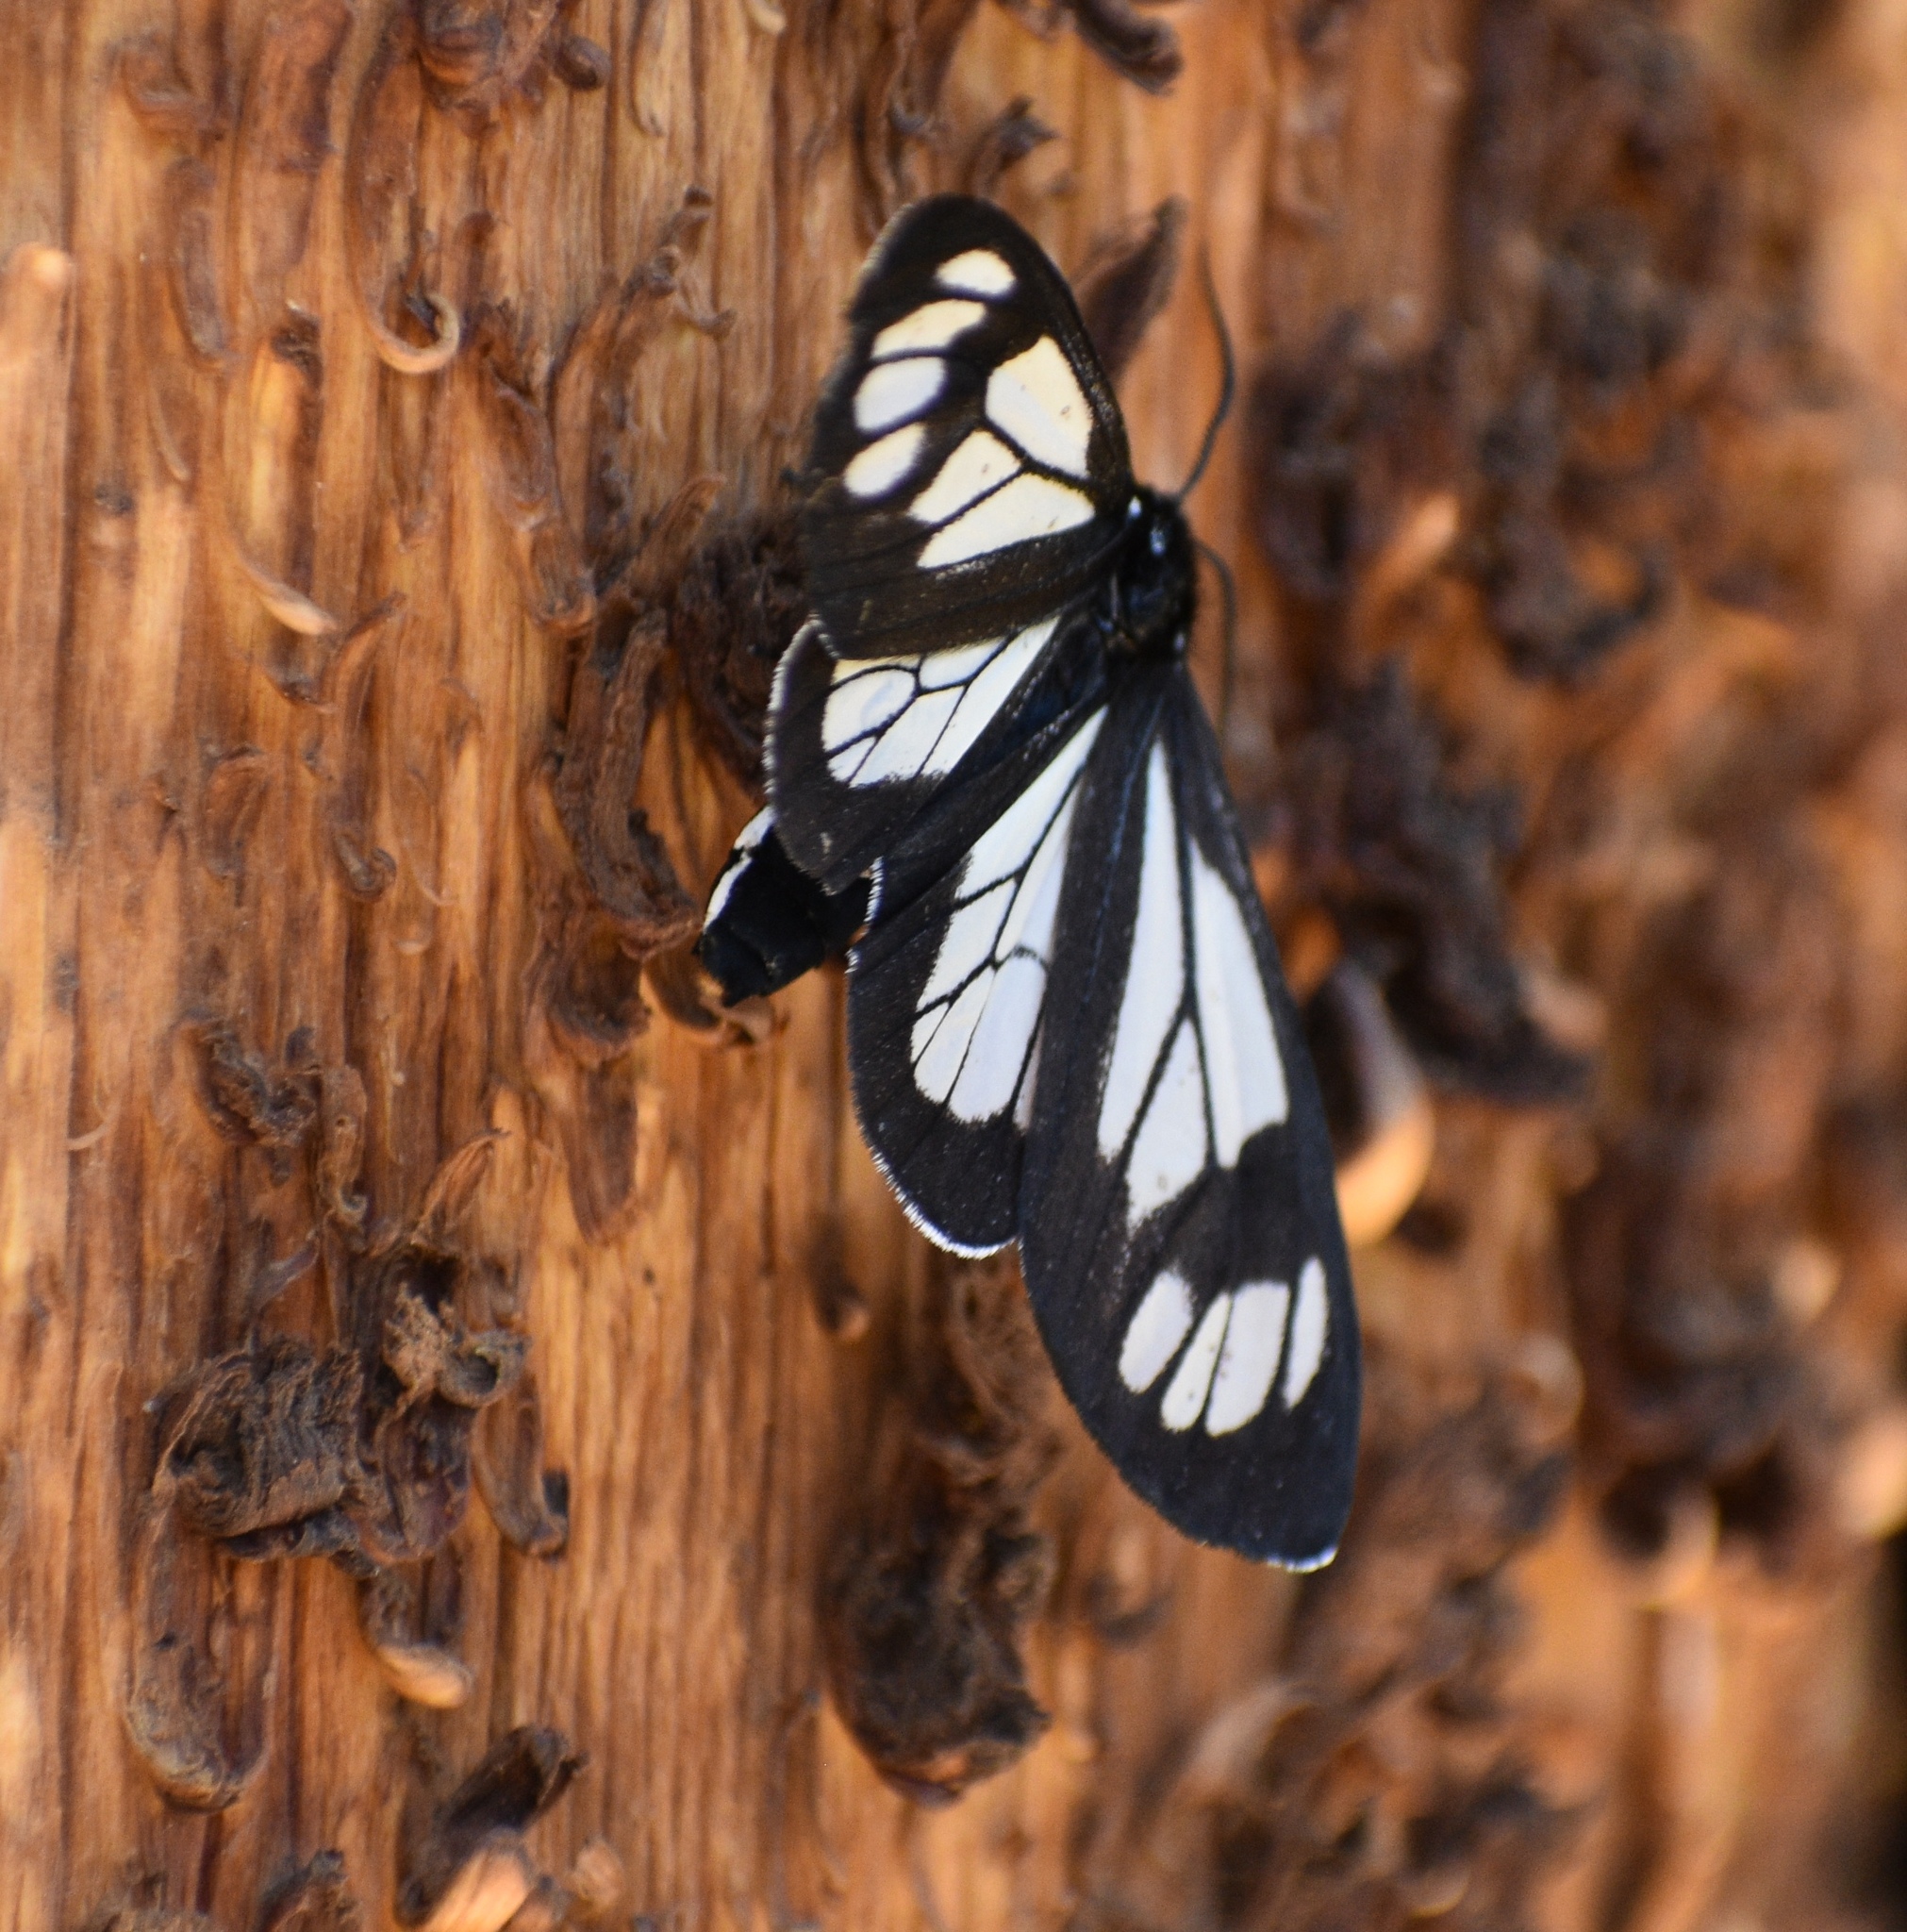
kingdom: Animalia
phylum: Arthropoda
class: Insecta
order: Lepidoptera
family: Erebidae
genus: Gnophaela
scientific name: Gnophaela vermiculata
